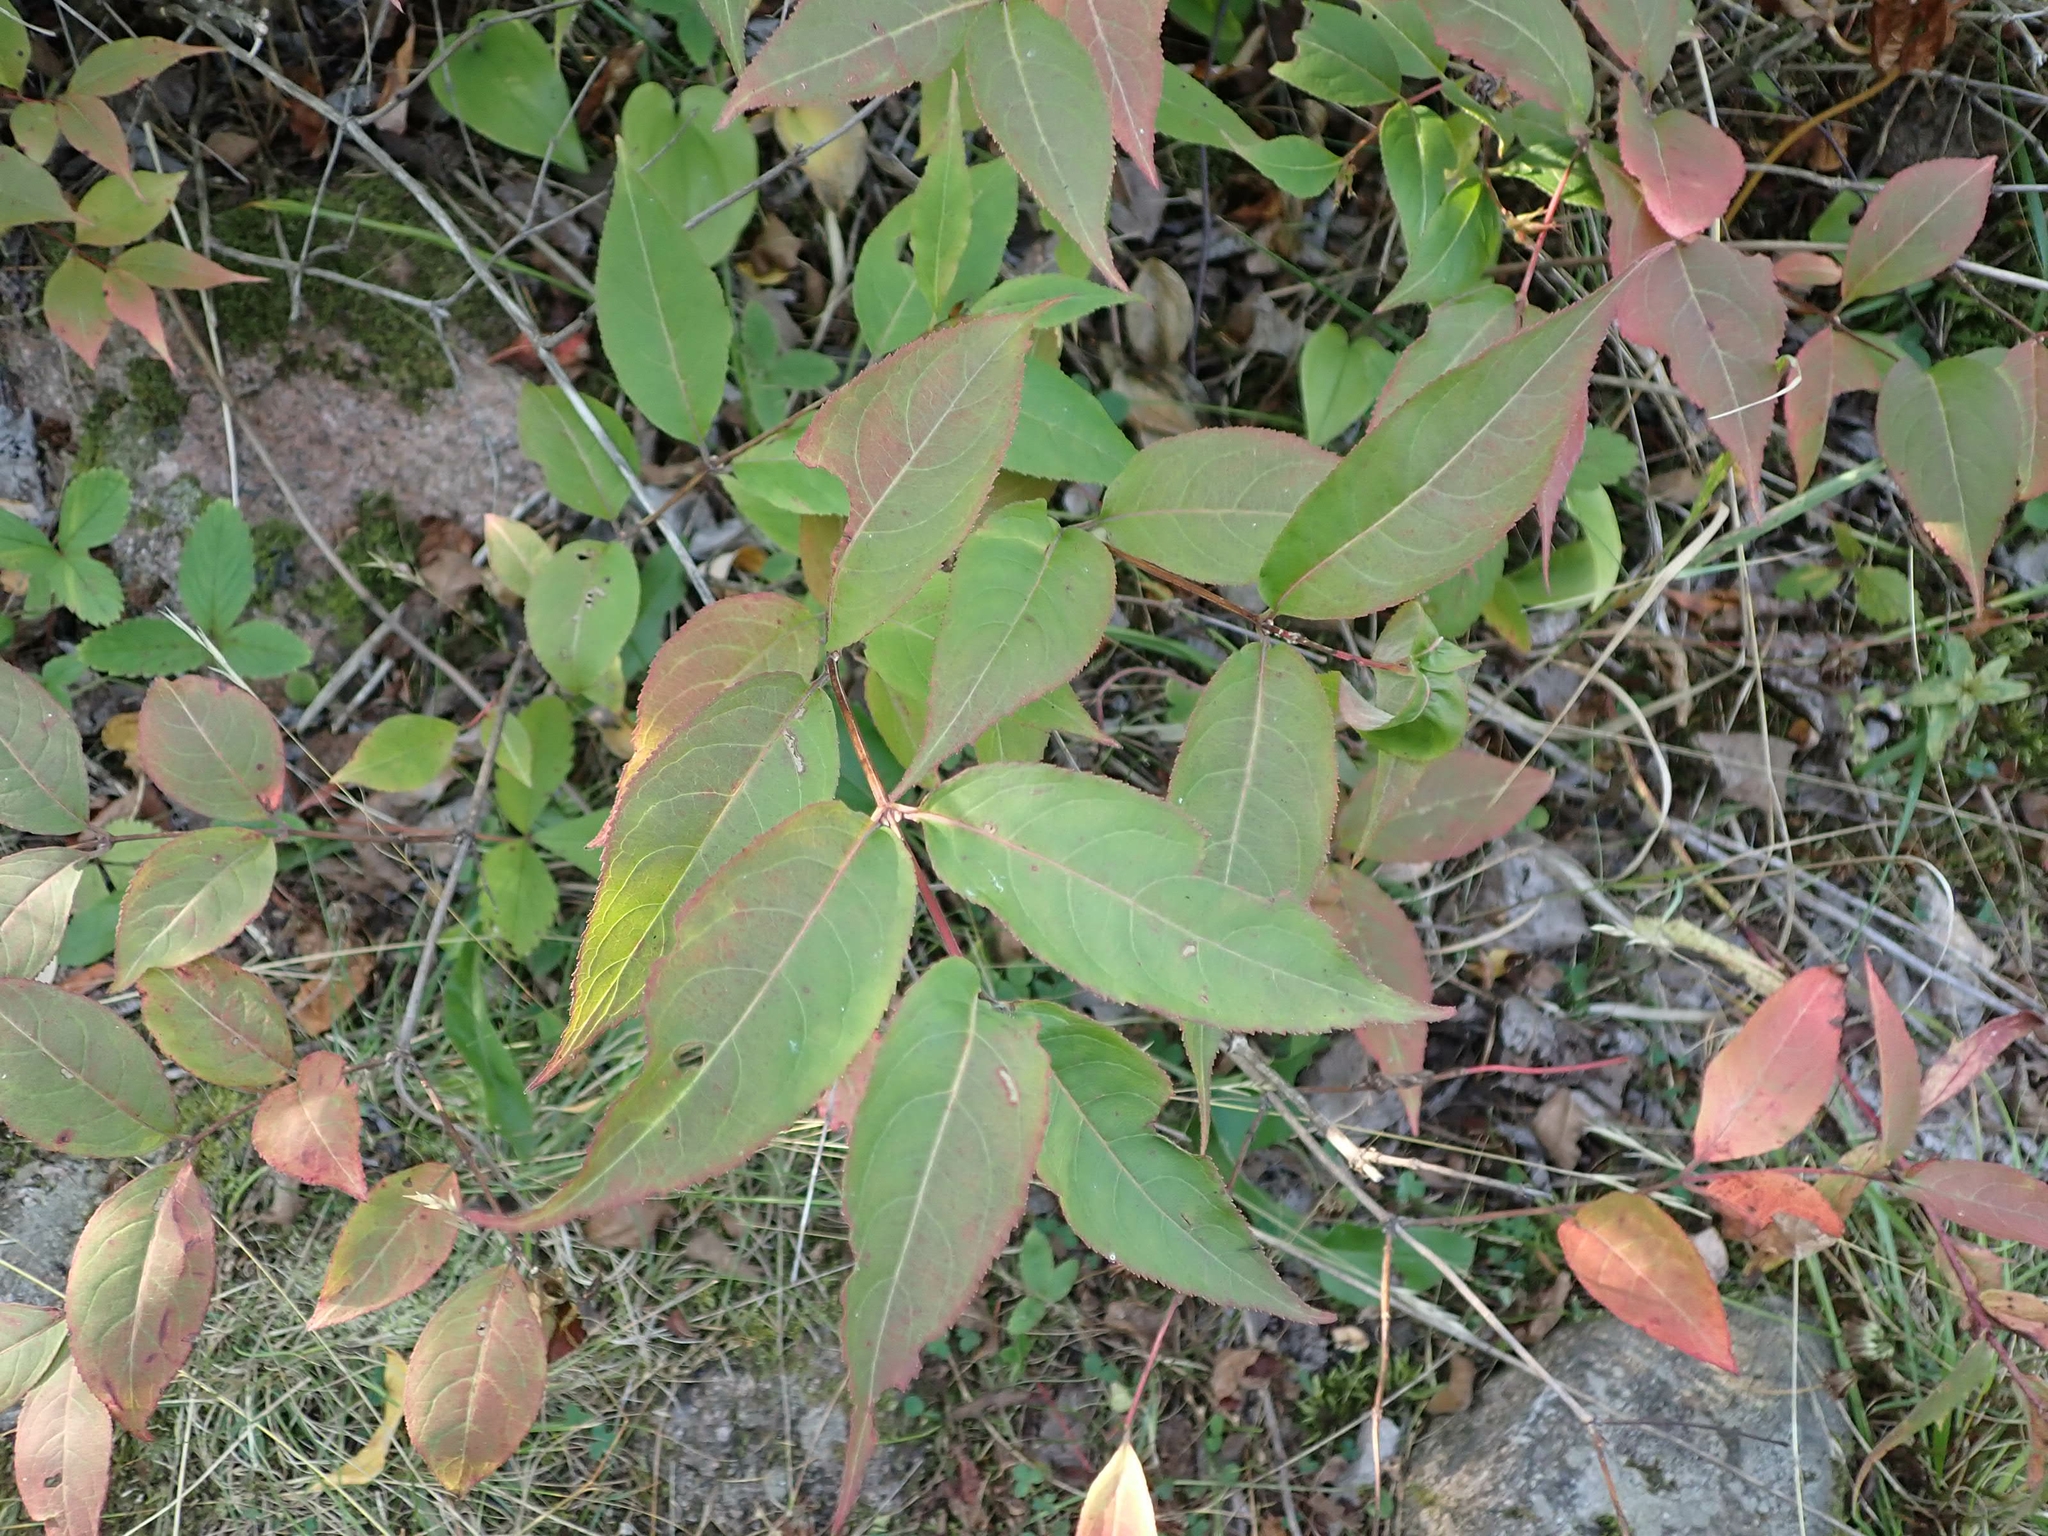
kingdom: Plantae
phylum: Tracheophyta
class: Magnoliopsida
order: Dipsacales
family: Caprifoliaceae
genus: Diervilla
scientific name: Diervilla lonicera
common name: Bush-honeysuckle
